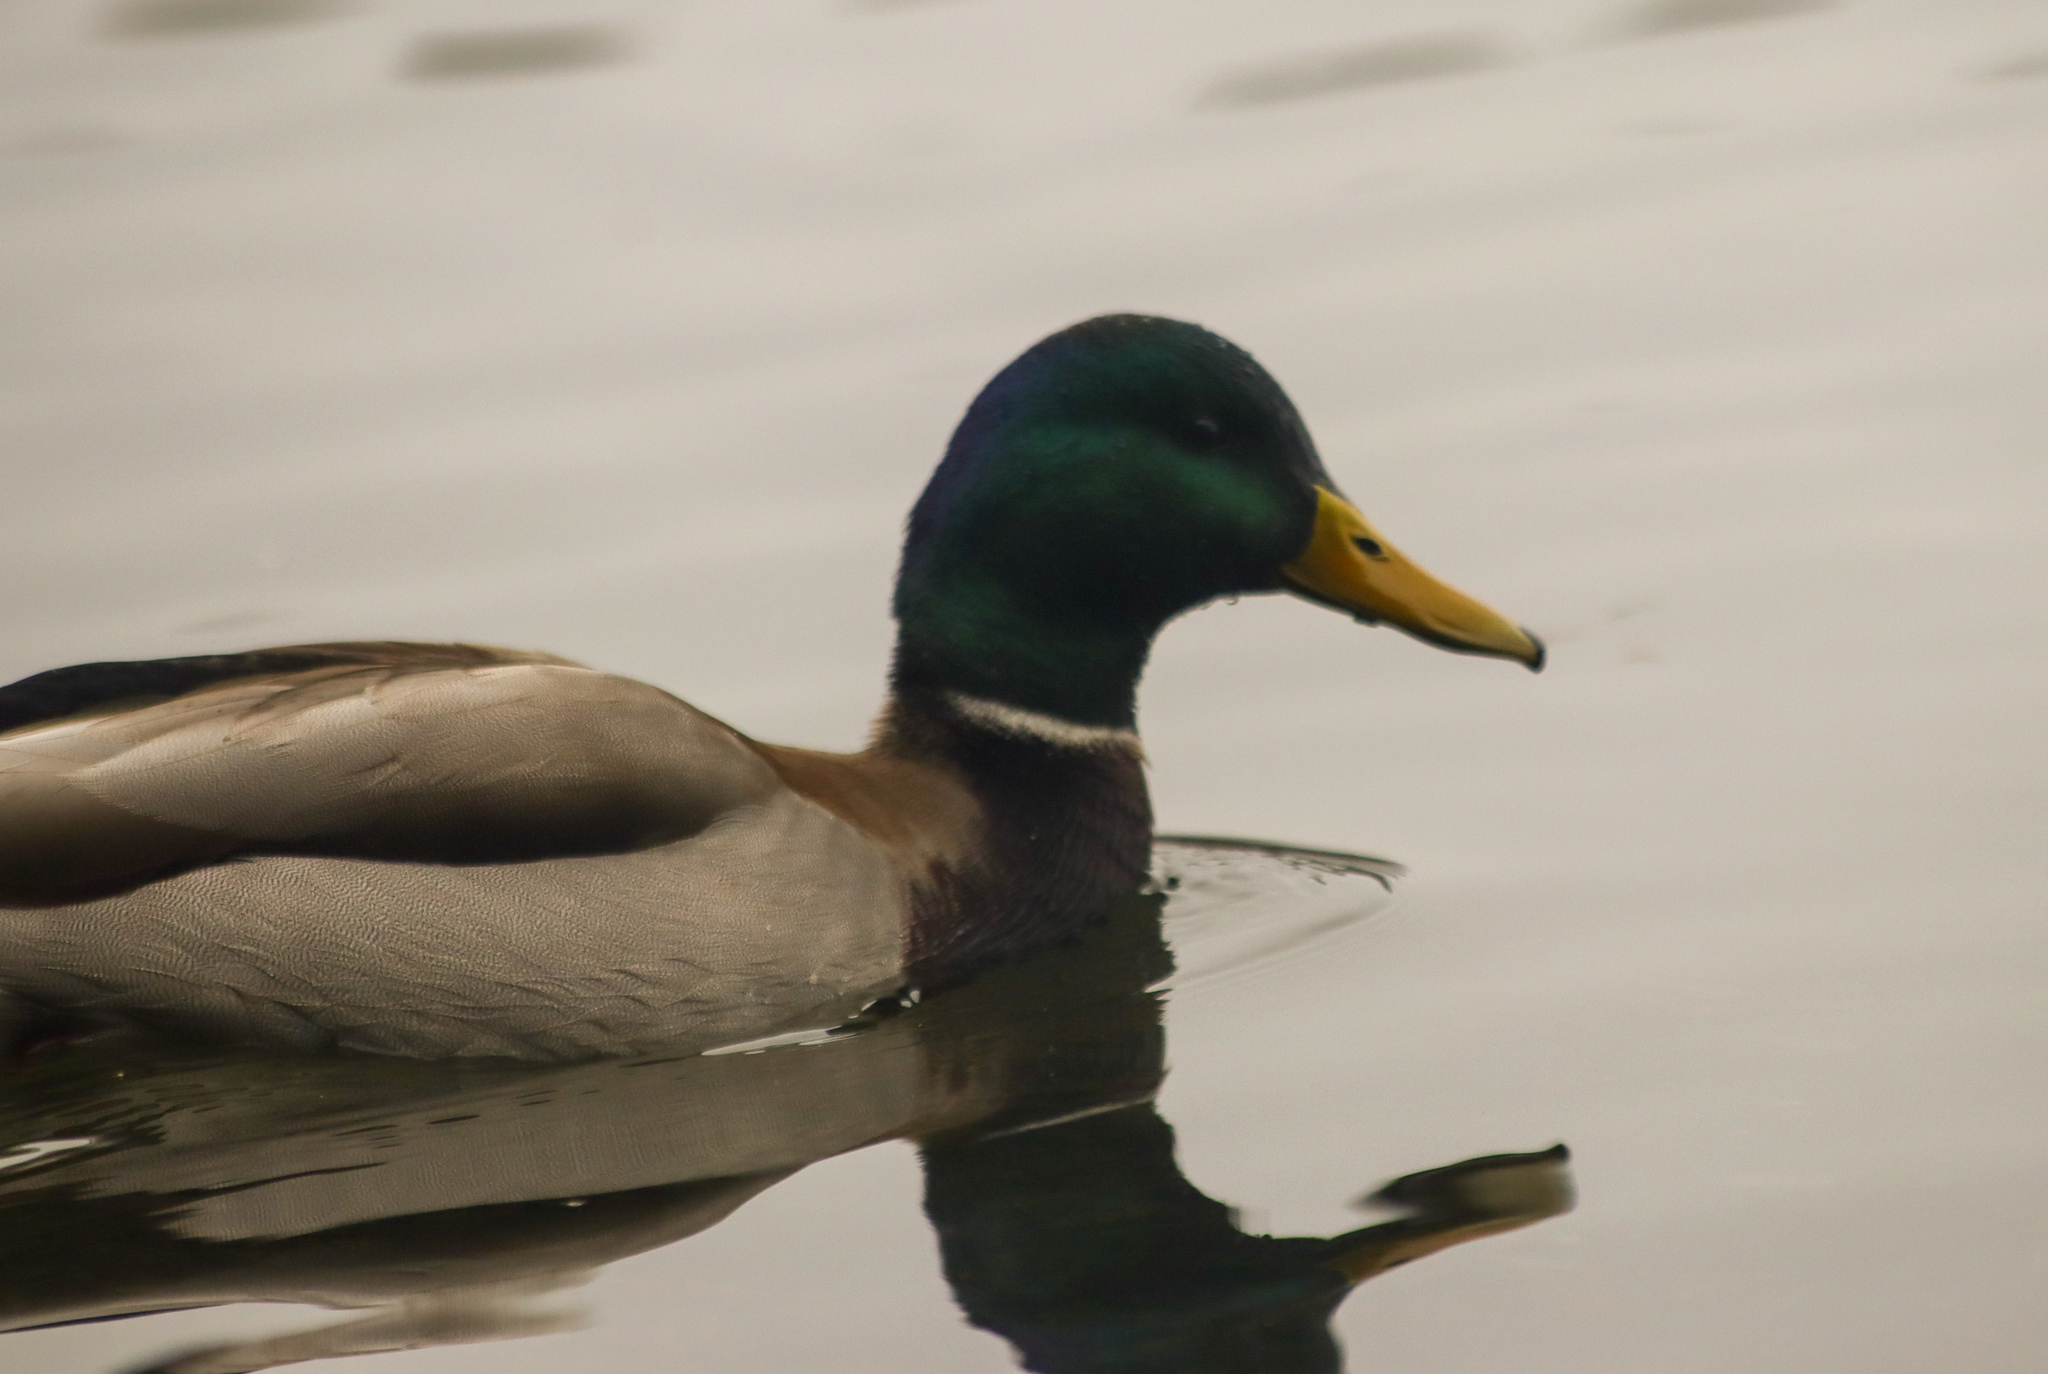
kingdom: Animalia
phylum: Chordata
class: Aves
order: Anseriformes
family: Anatidae
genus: Anas
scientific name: Anas platyrhynchos
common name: Mallard
